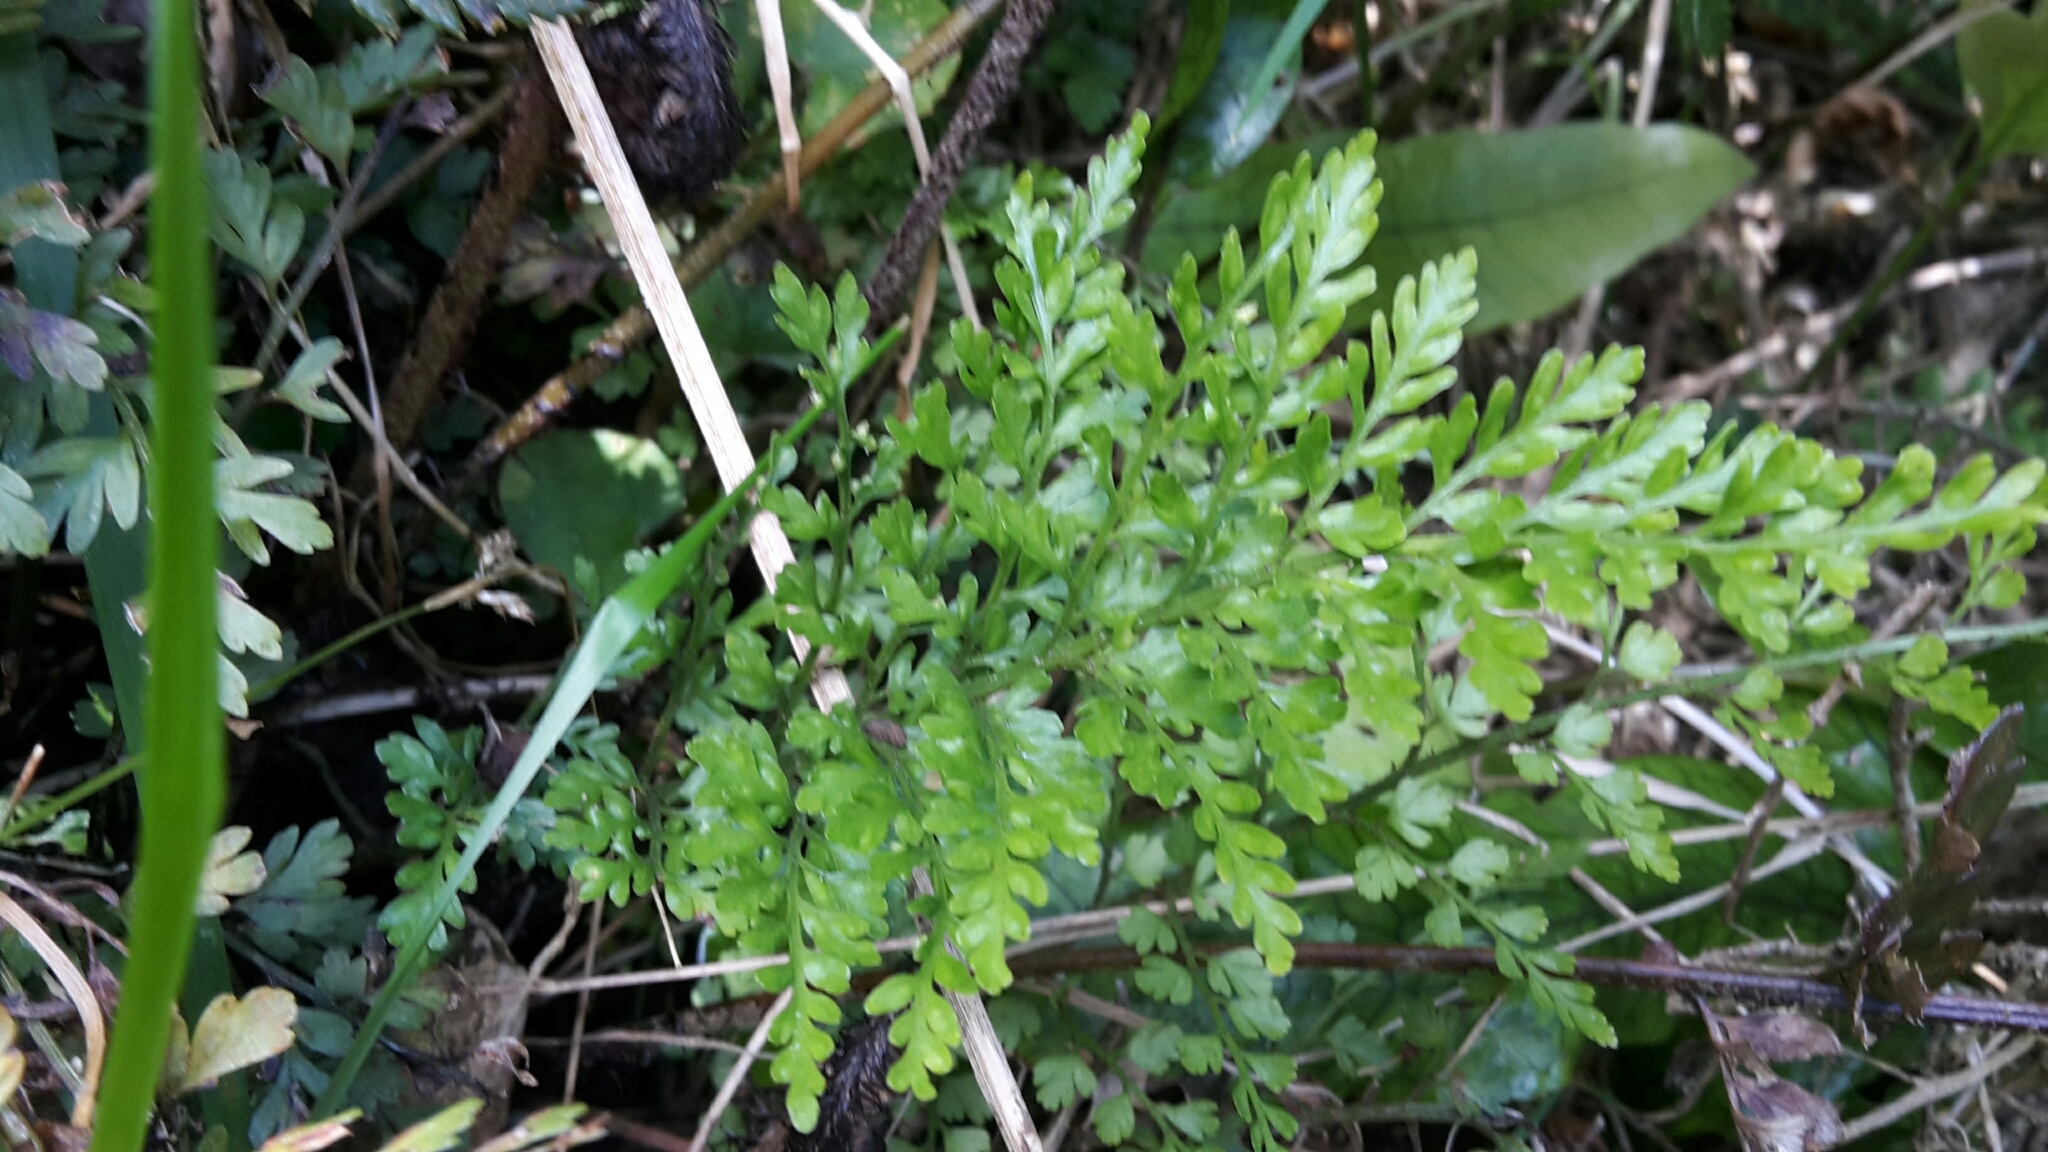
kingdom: Plantae
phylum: Tracheophyta
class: Polypodiopsida
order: Polypodiales
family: Aspleniaceae
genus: Asplenium
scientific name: Asplenium hookerianum
